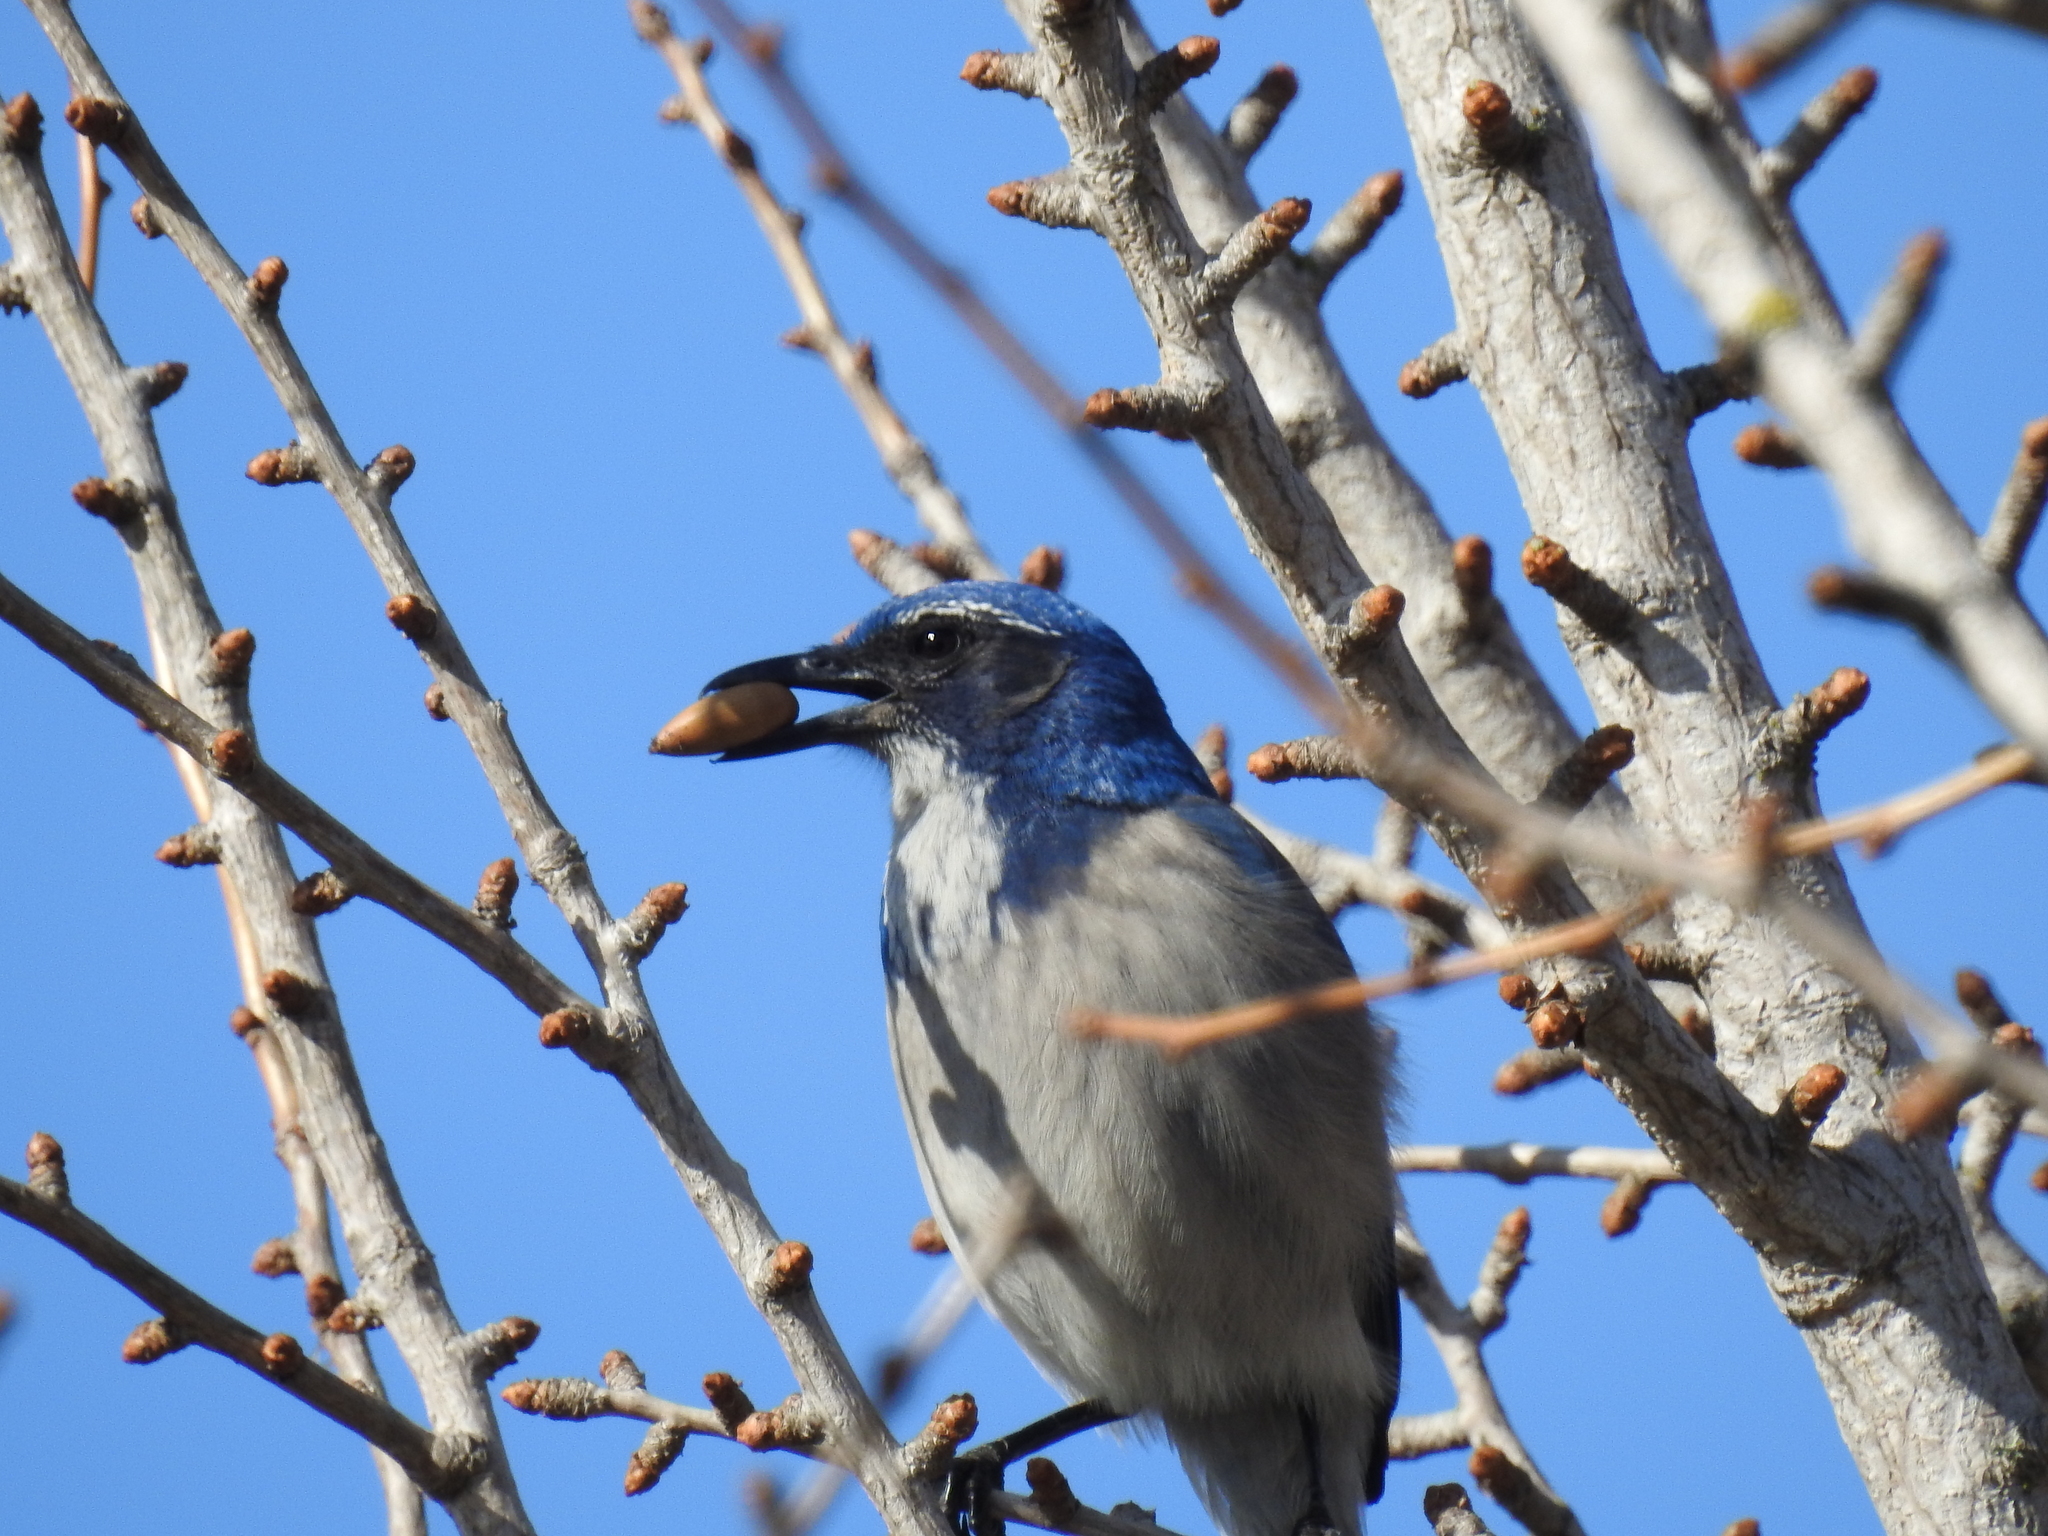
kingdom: Animalia
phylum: Chordata
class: Aves
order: Passeriformes
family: Corvidae
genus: Aphelocoma
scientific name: Aphelocoma californica
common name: California scrub-jay
